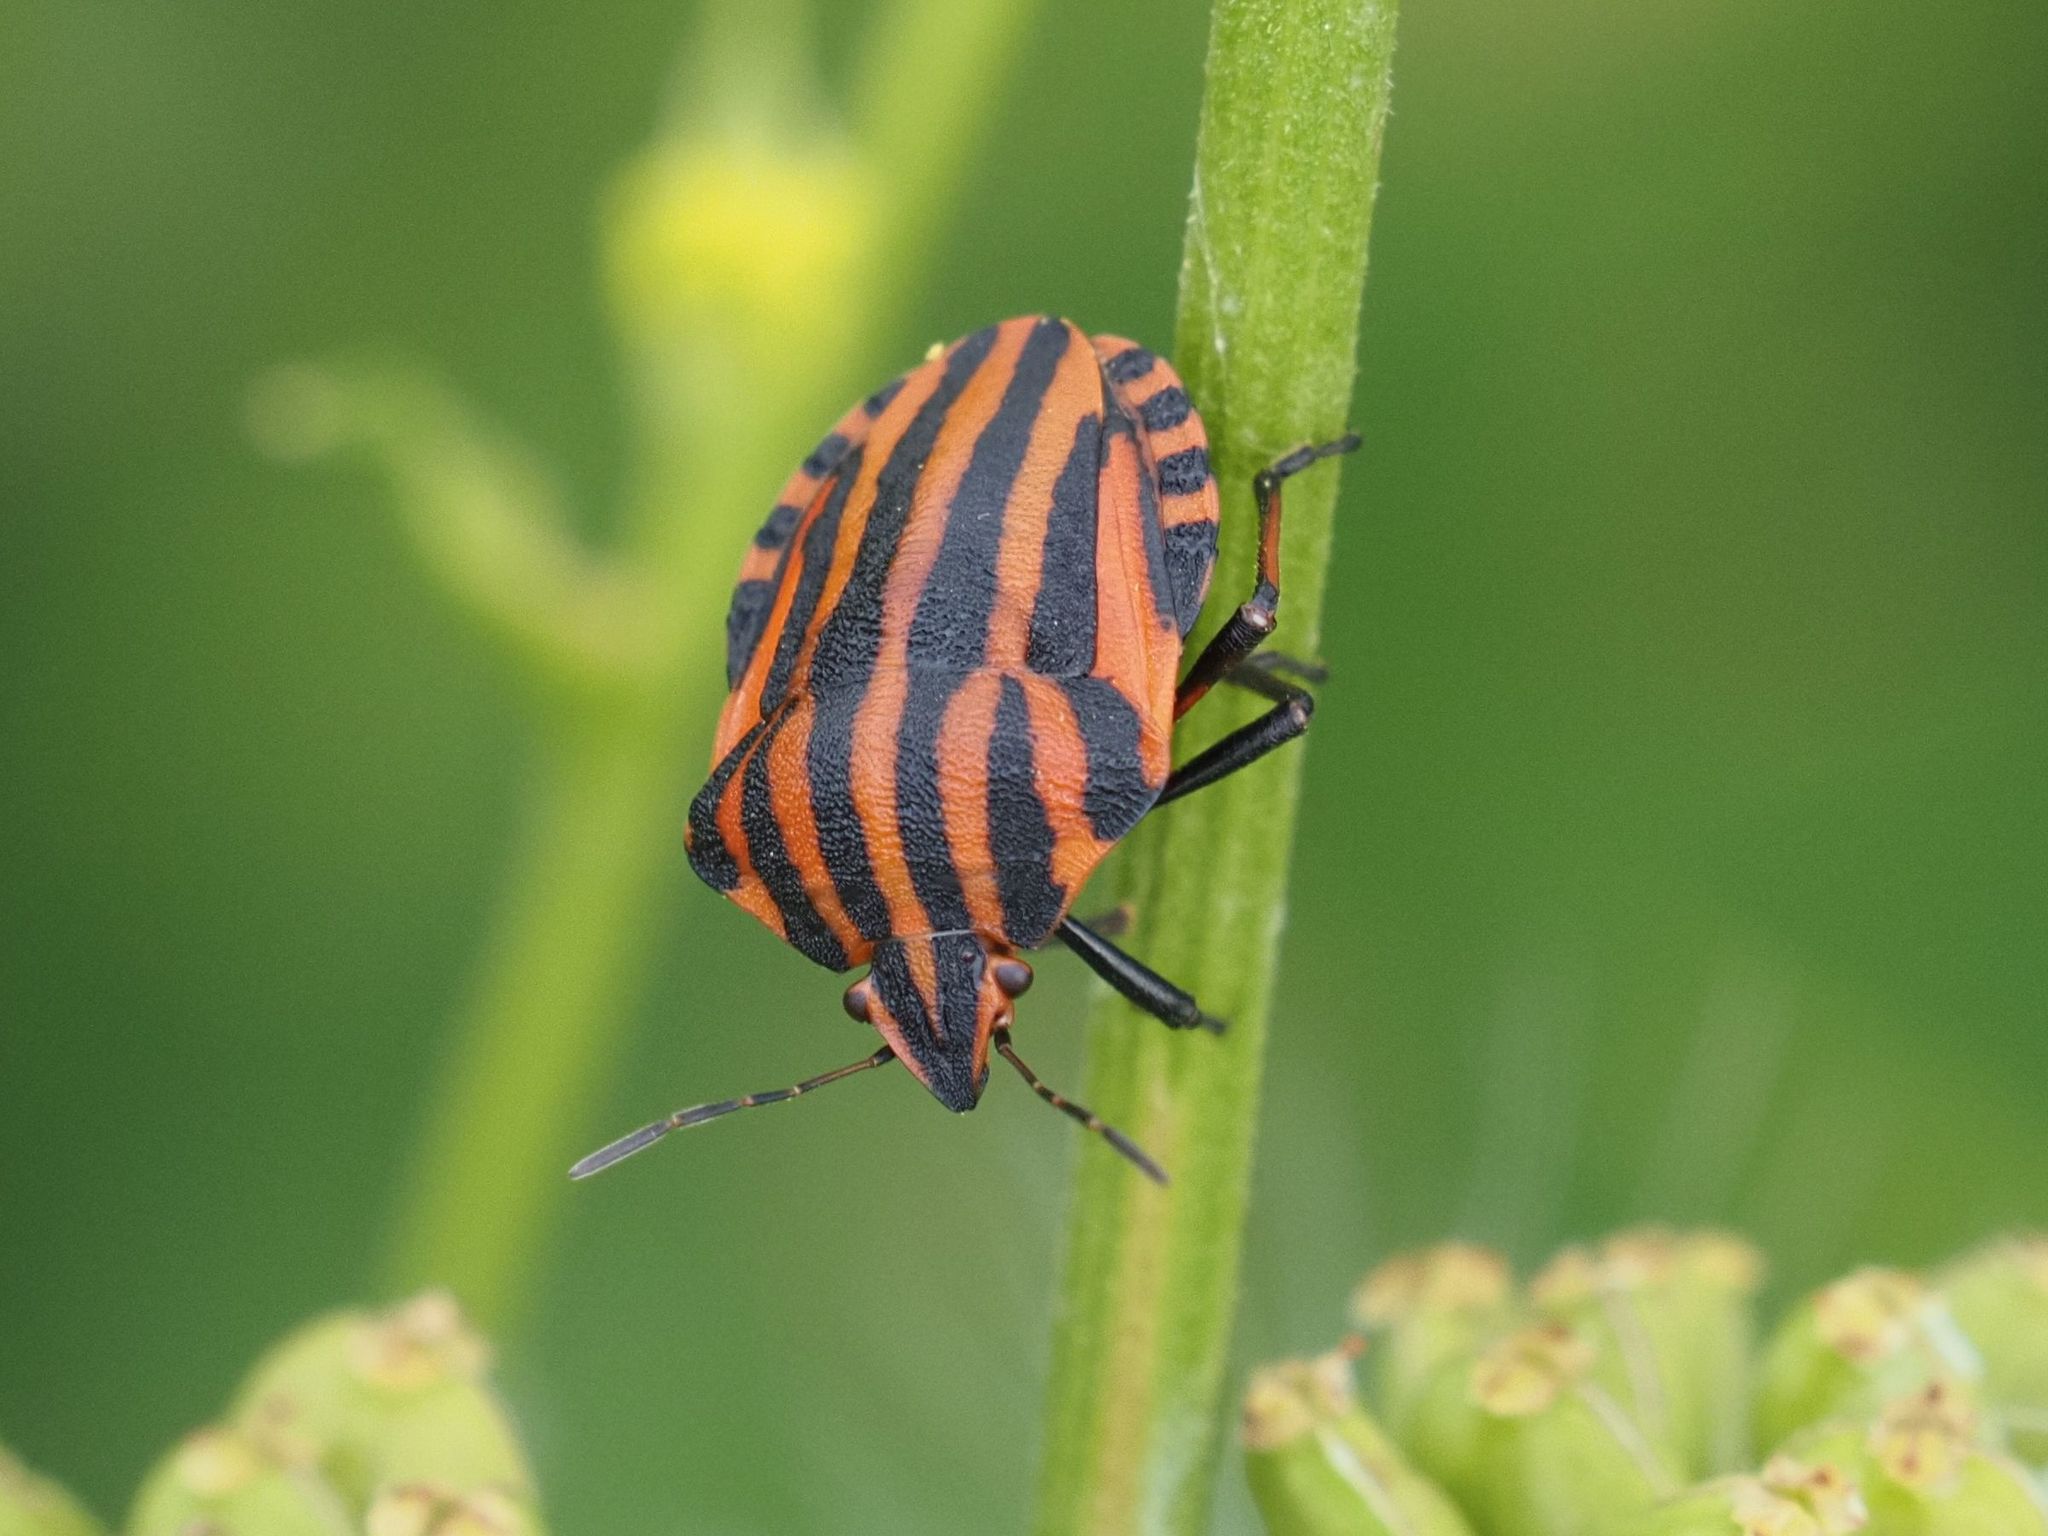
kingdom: Animalia
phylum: Arthropoda
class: Insecta
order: Hemiptera
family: Pentatomidae
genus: Graphosoma
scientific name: Graphosoma italicum
